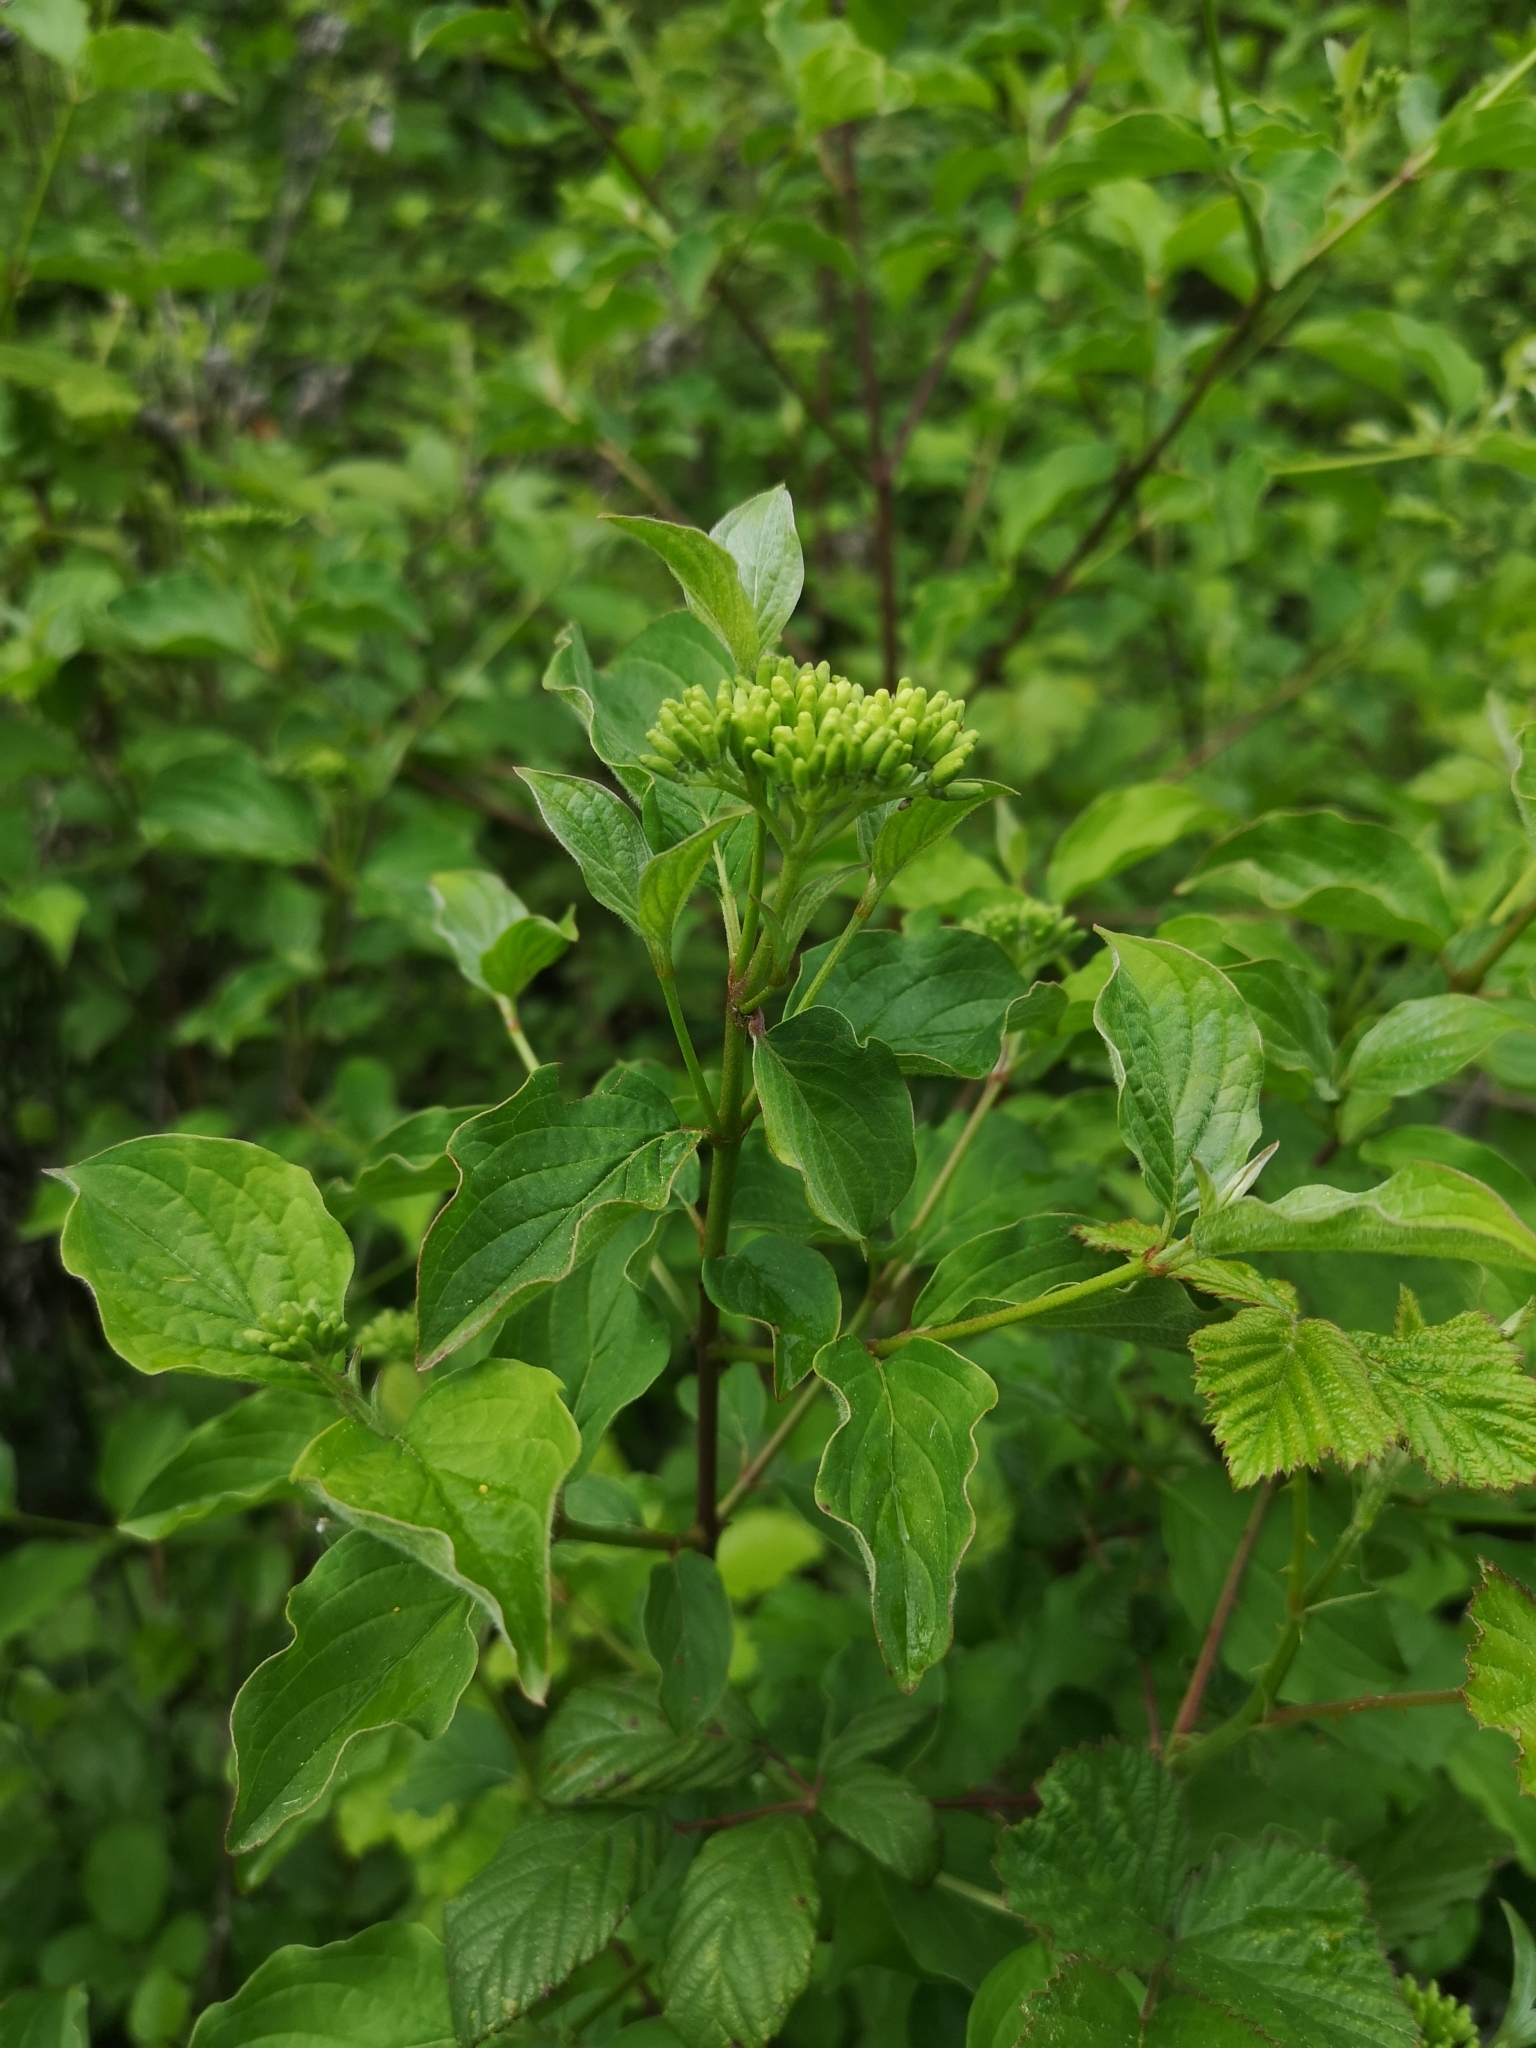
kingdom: Plantae
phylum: Tracheophyta
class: Magnoliopsida
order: Cornales
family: Cornaceae
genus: Cornus
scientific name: Cornus sanguinea
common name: Dogwood
